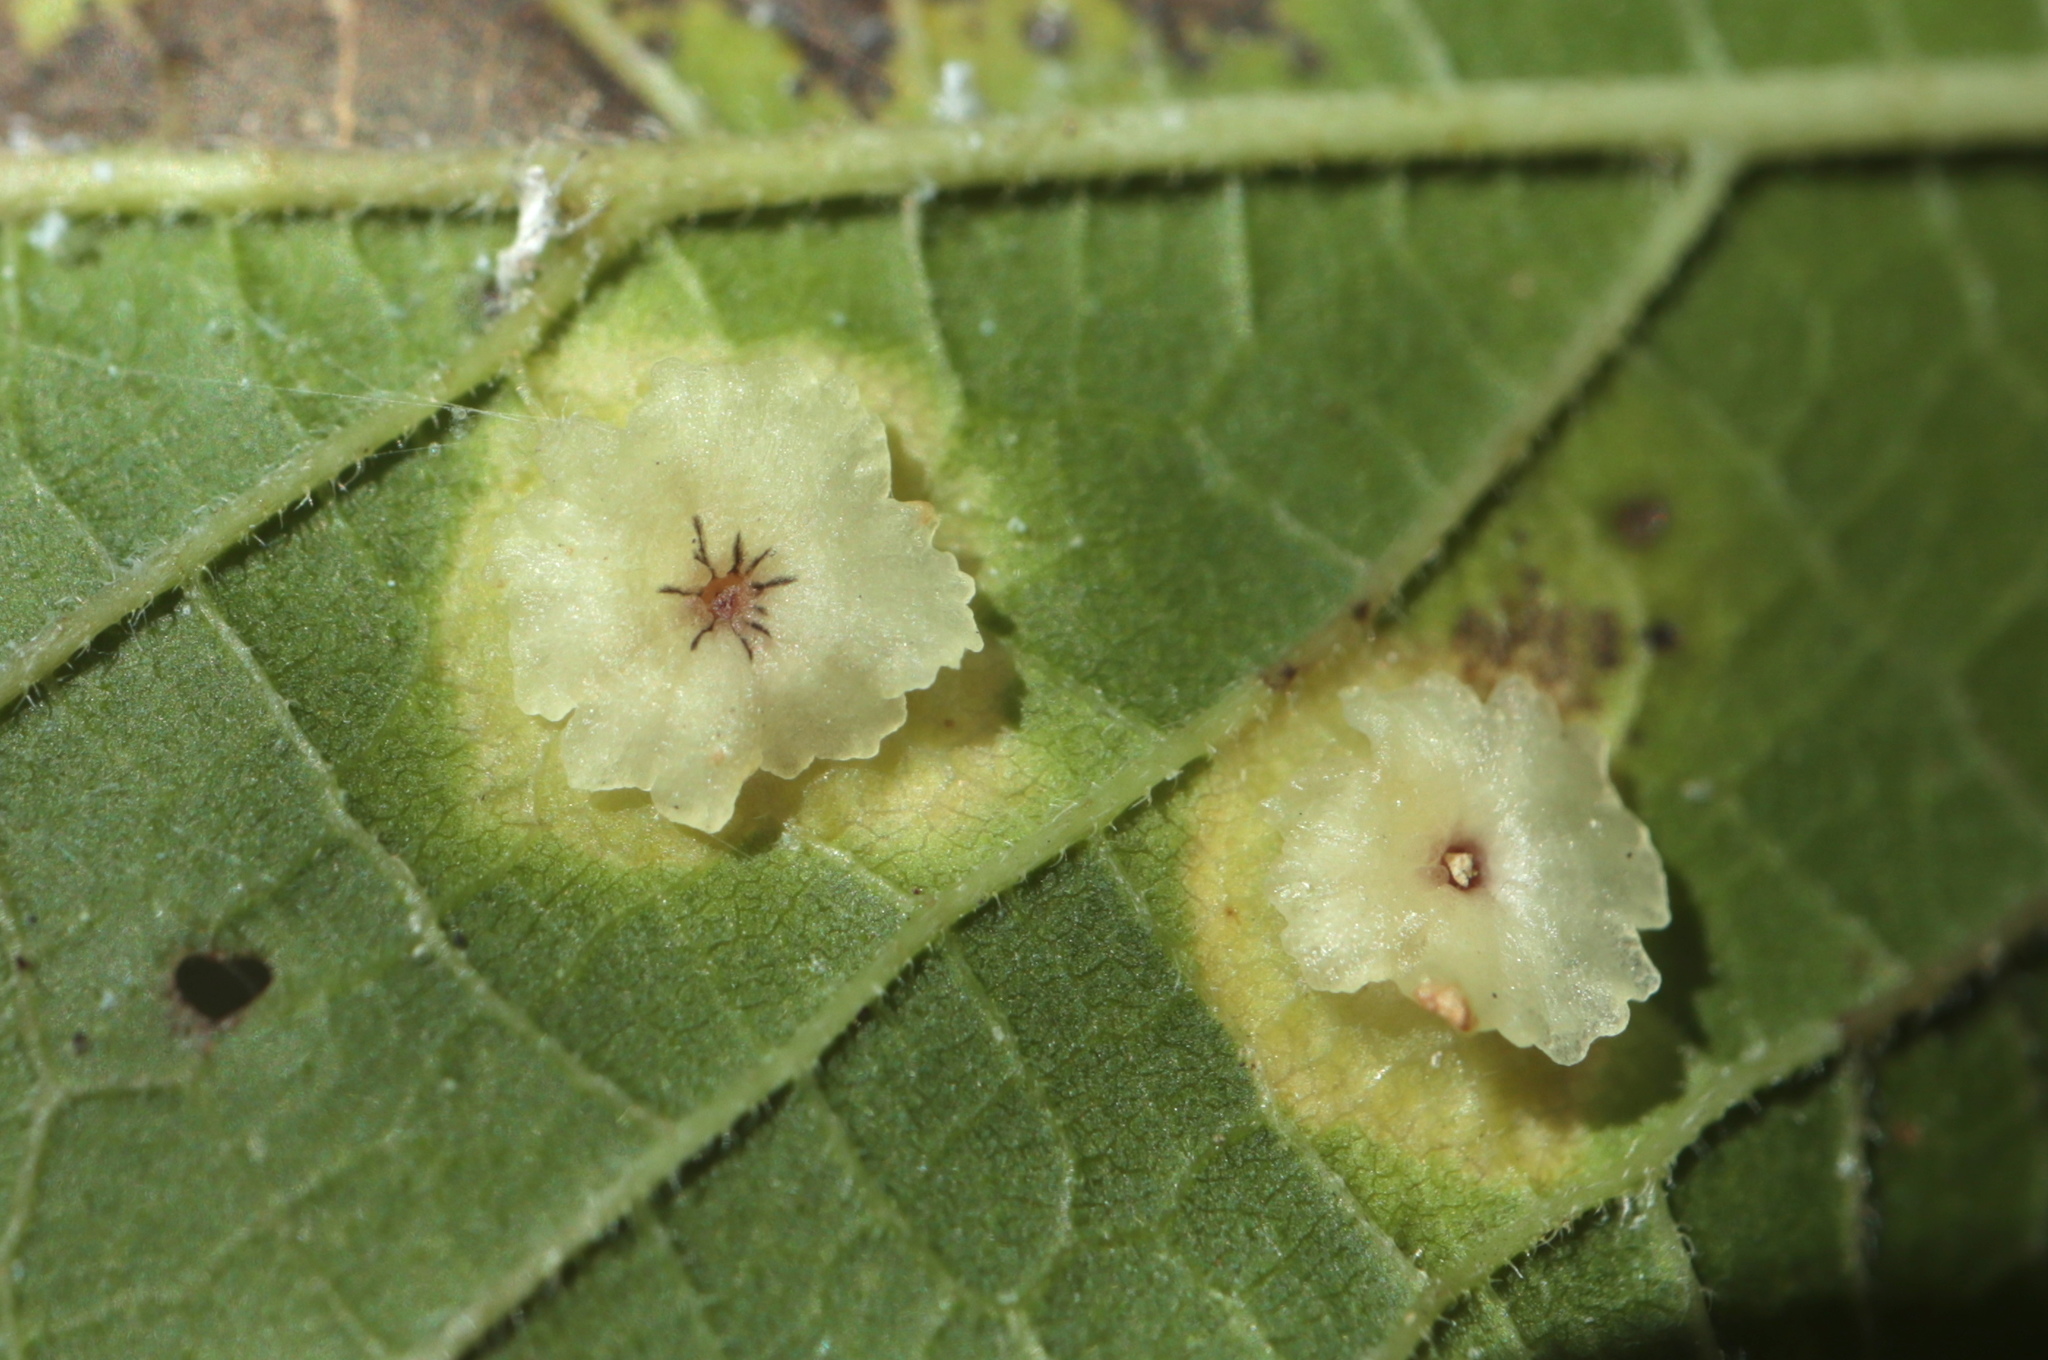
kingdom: Animalia
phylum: Arthropoda
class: Insecta
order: Hemiptera
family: Aphalaridae
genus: Pachypsylla
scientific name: Pachypsylla celtidisasterisca
